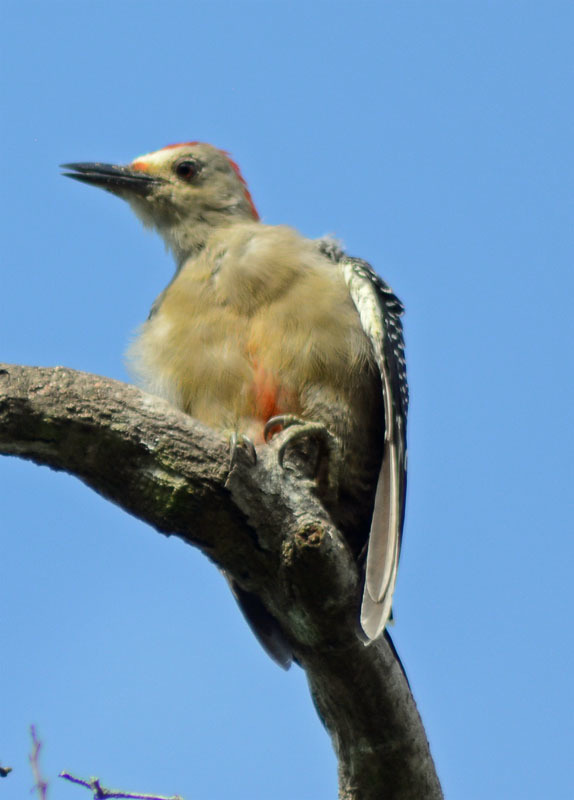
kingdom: Animalia
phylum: Chordata
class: Aves
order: Piciformes
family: Picidae
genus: Melanerpes
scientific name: Melanerpes aurifrons
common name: Golden-fronted woodpecker
